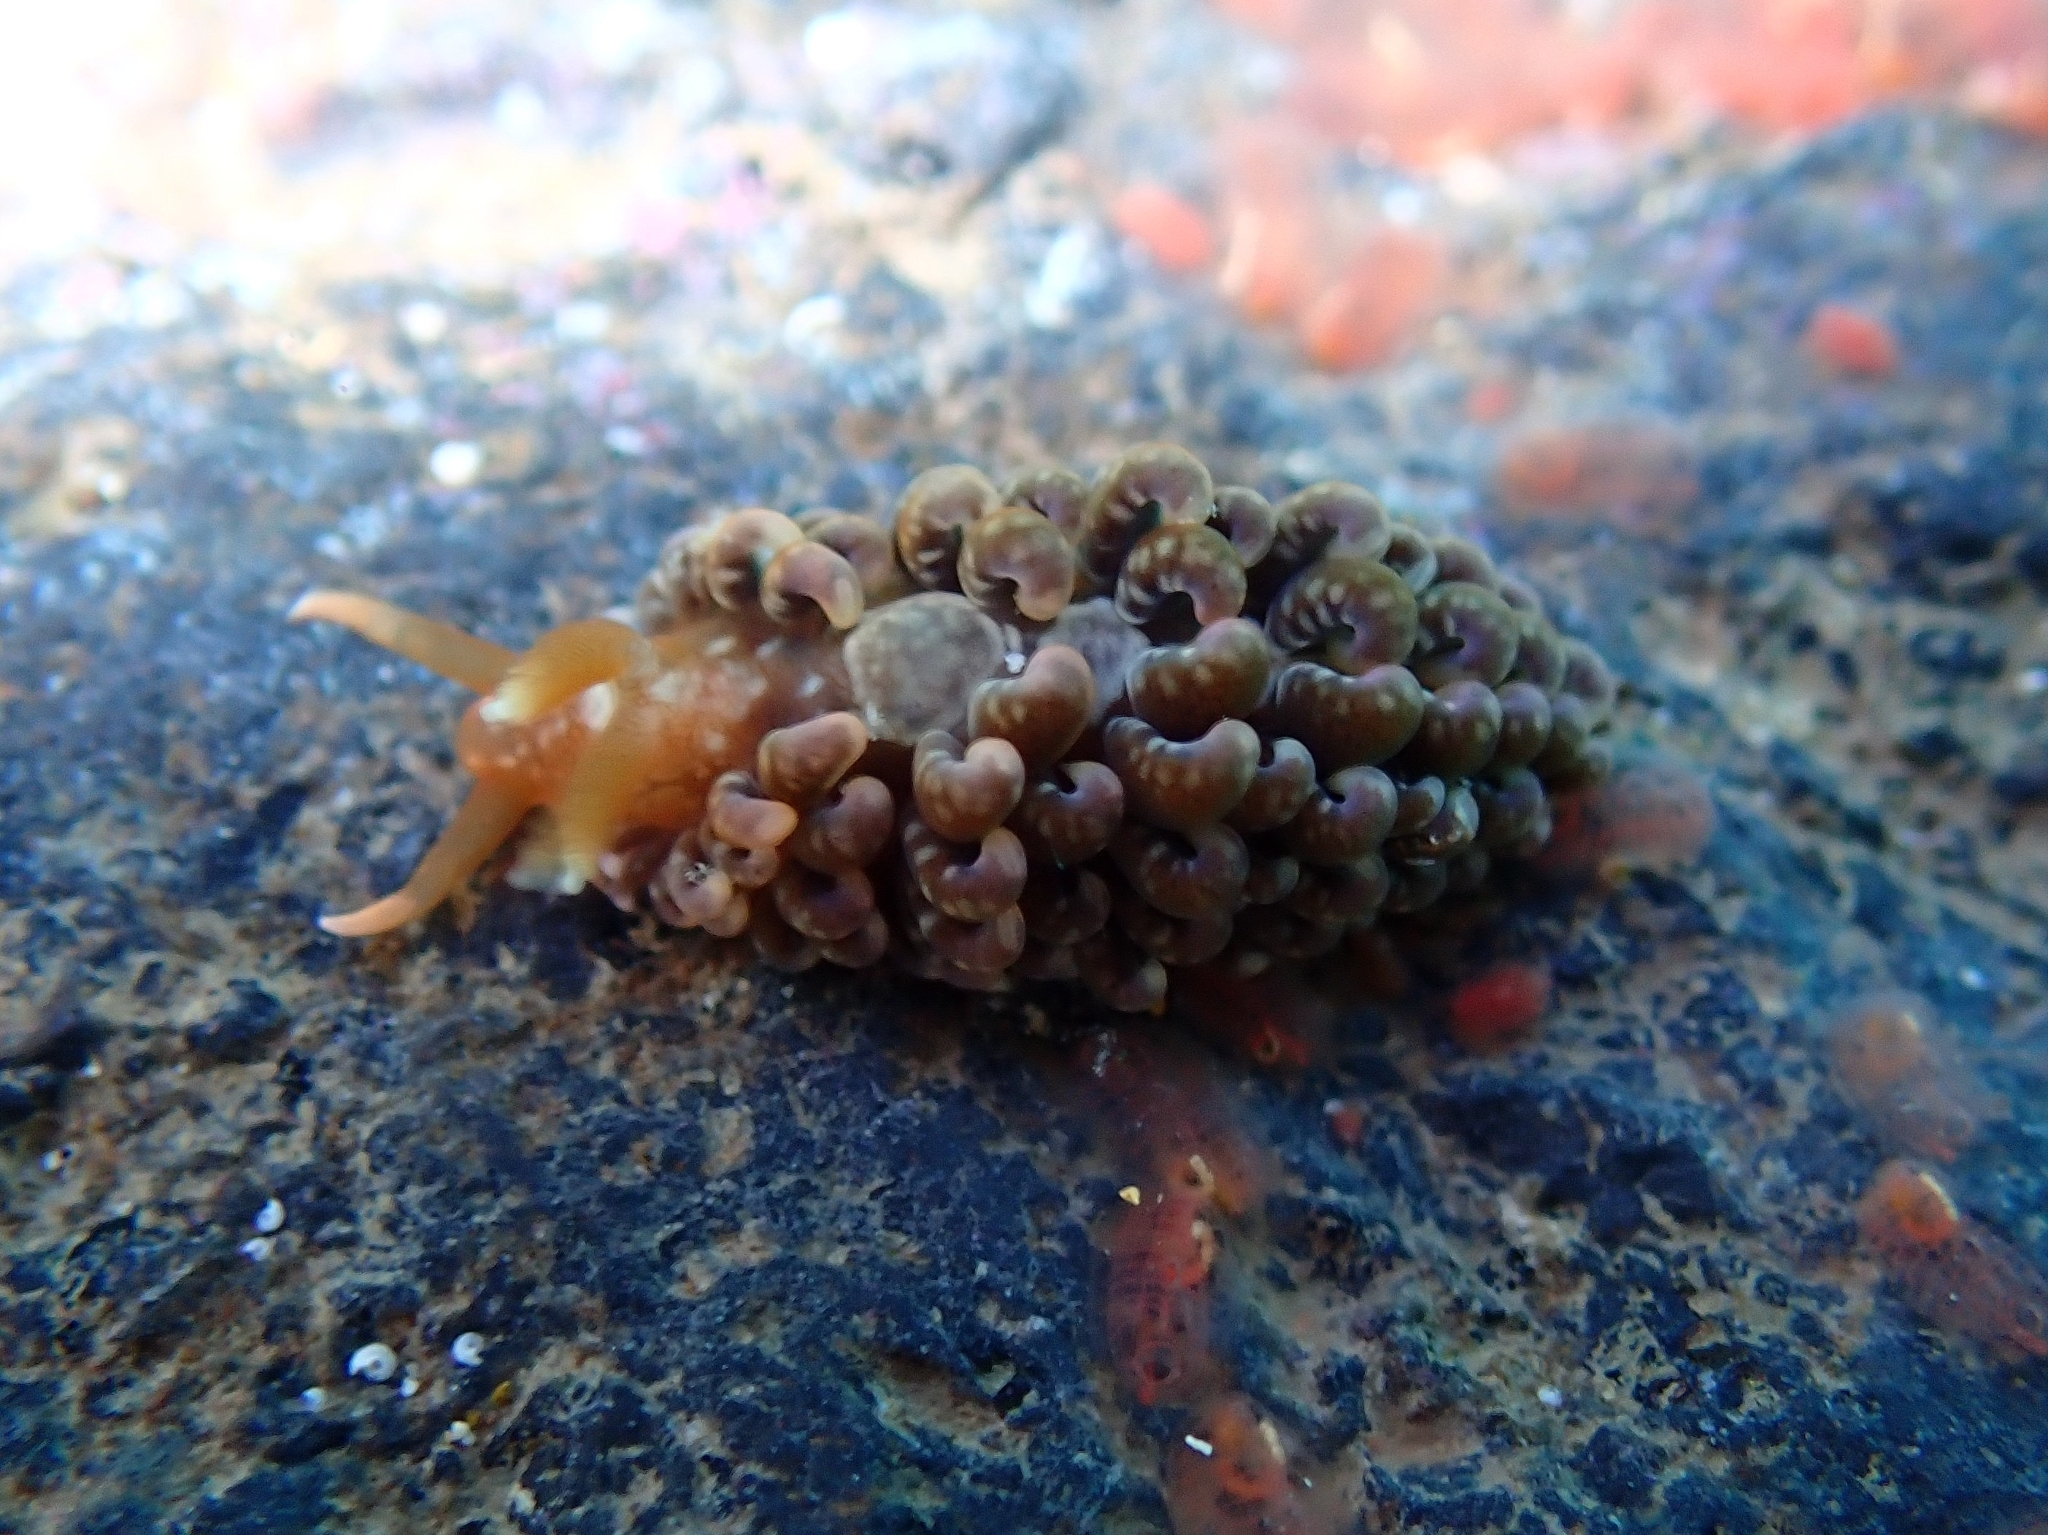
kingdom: Animalia
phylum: Mollusca
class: Gastropoda
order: Nudibranchia
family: Aeolidiidae
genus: Spurilla
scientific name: Spurilla neapolitana
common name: Naples spurilla
